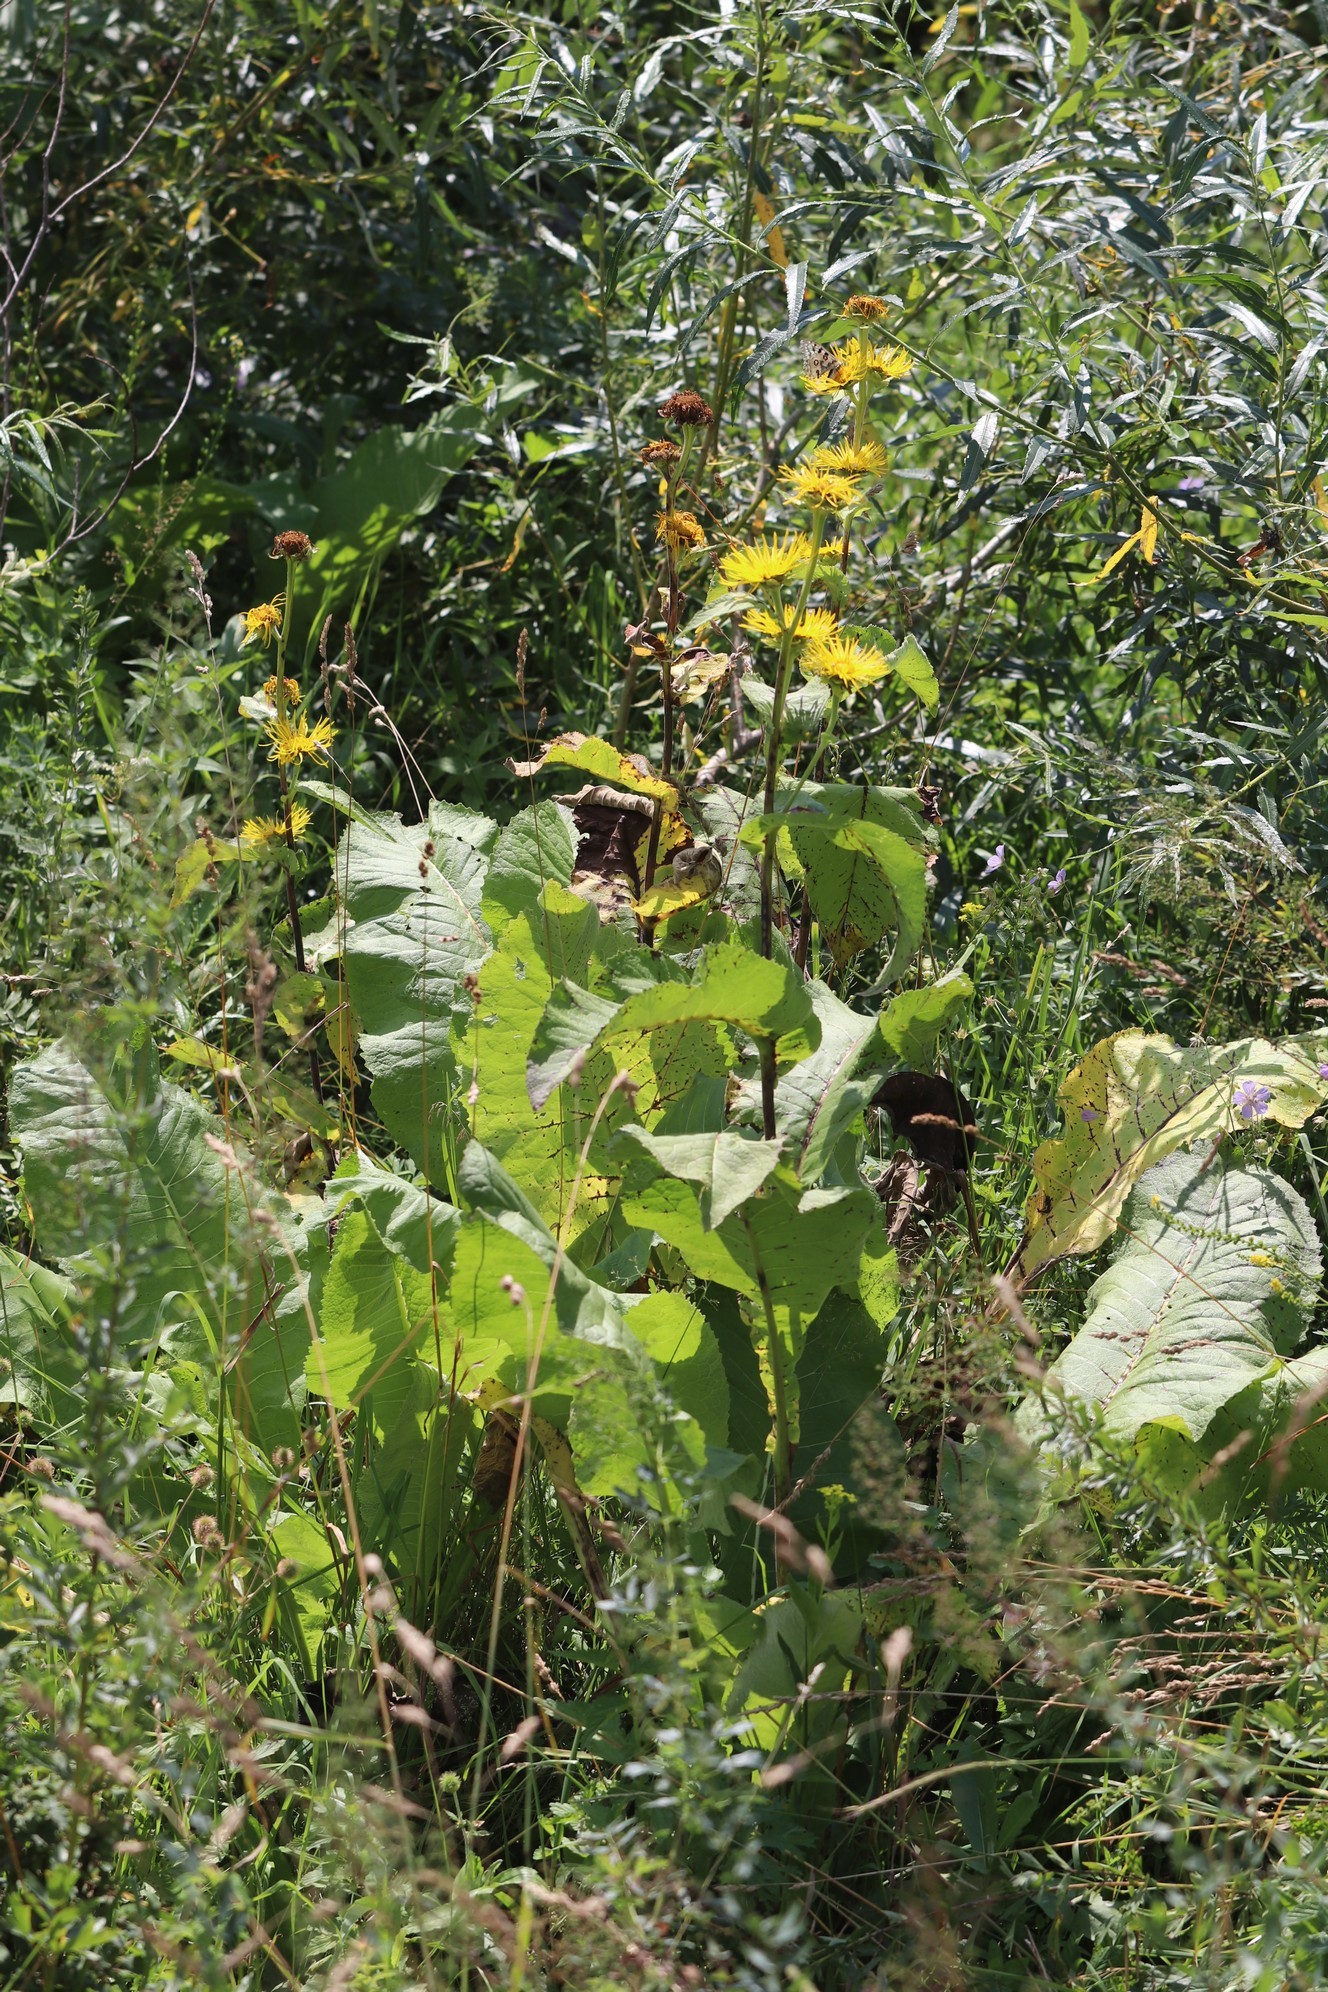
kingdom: Plantae
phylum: Tracheophyta
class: Magnoliopsida
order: Asterales
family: Asteraceae
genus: Inula
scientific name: Inula helenium
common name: Elecampane
